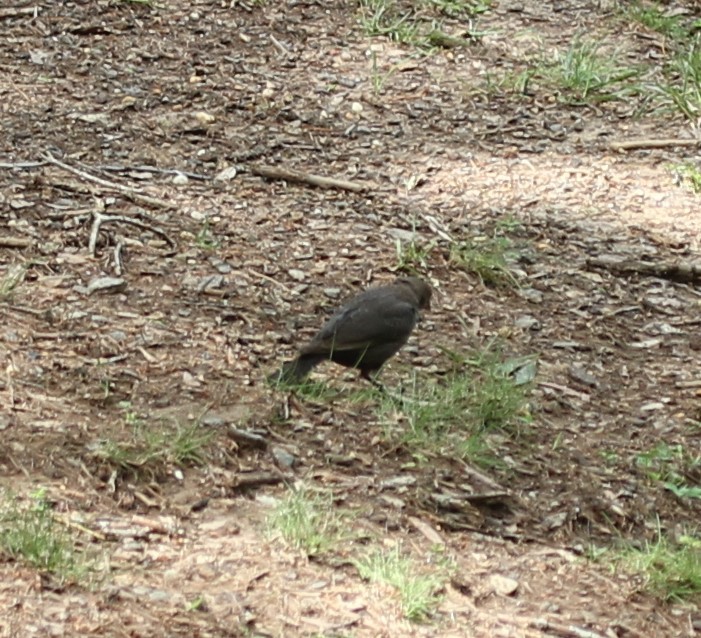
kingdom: Animalia
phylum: Chordata
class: Aves
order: Passeriformes
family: Icteridae
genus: Molothrus
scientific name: Molothrus ater
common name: Brown-headed cowbird
